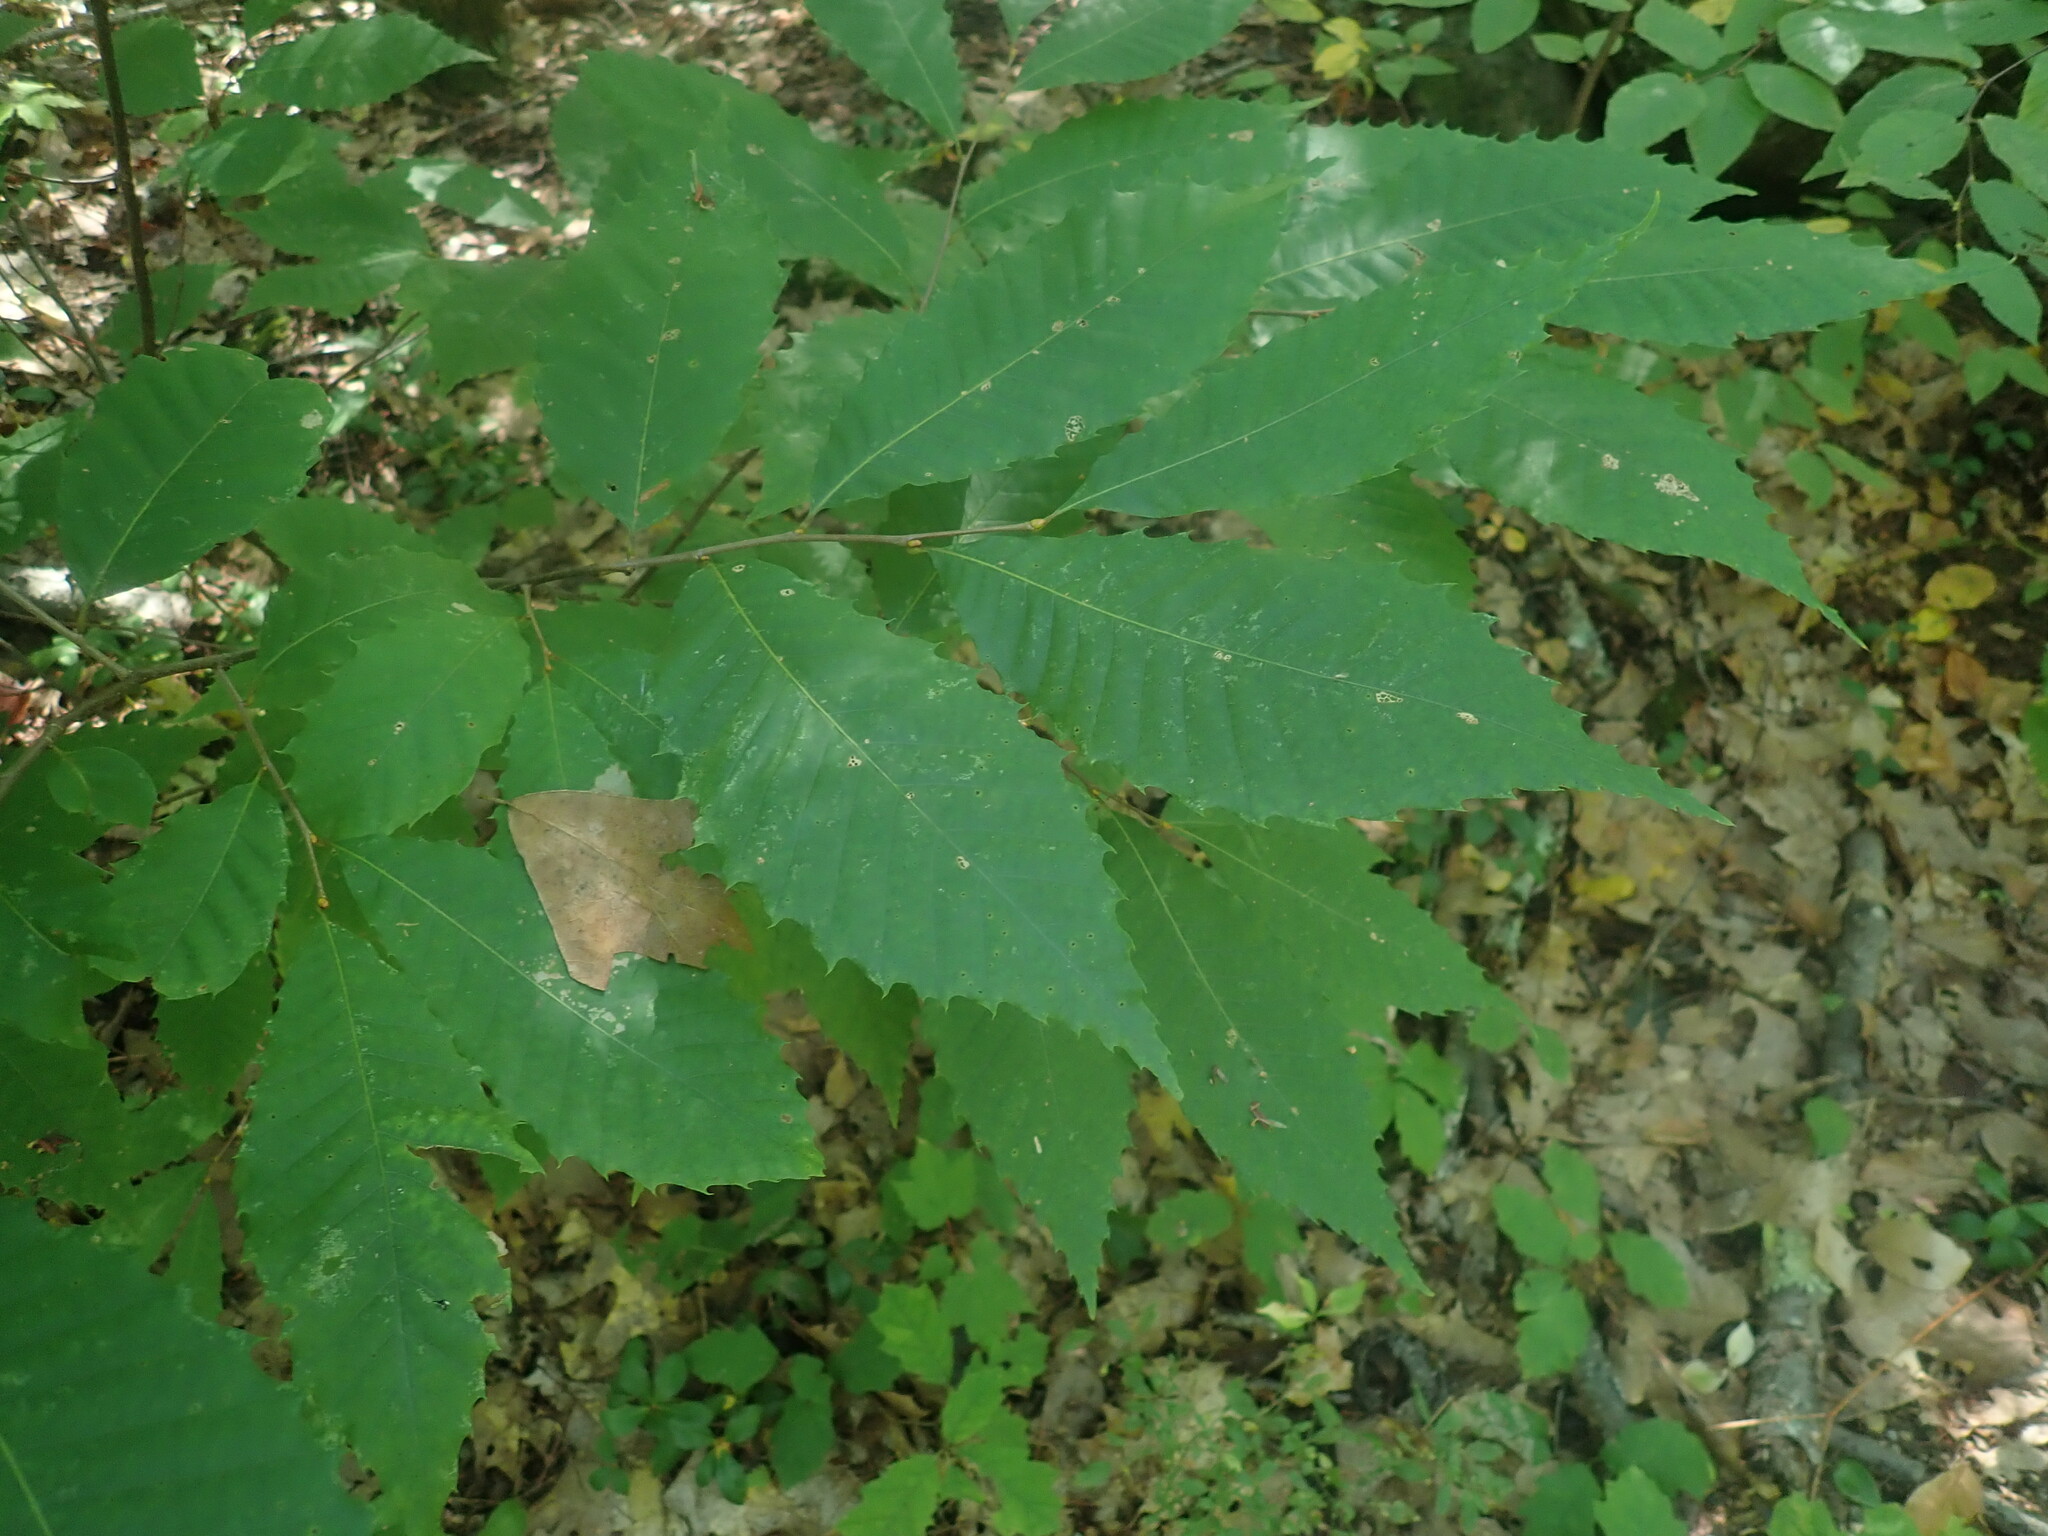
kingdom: Plantae
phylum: Tracheophyta
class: Magnoliopsida
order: Fagales
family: Fagaceae
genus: Castanea
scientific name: Castanea dentata
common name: American chestnut
